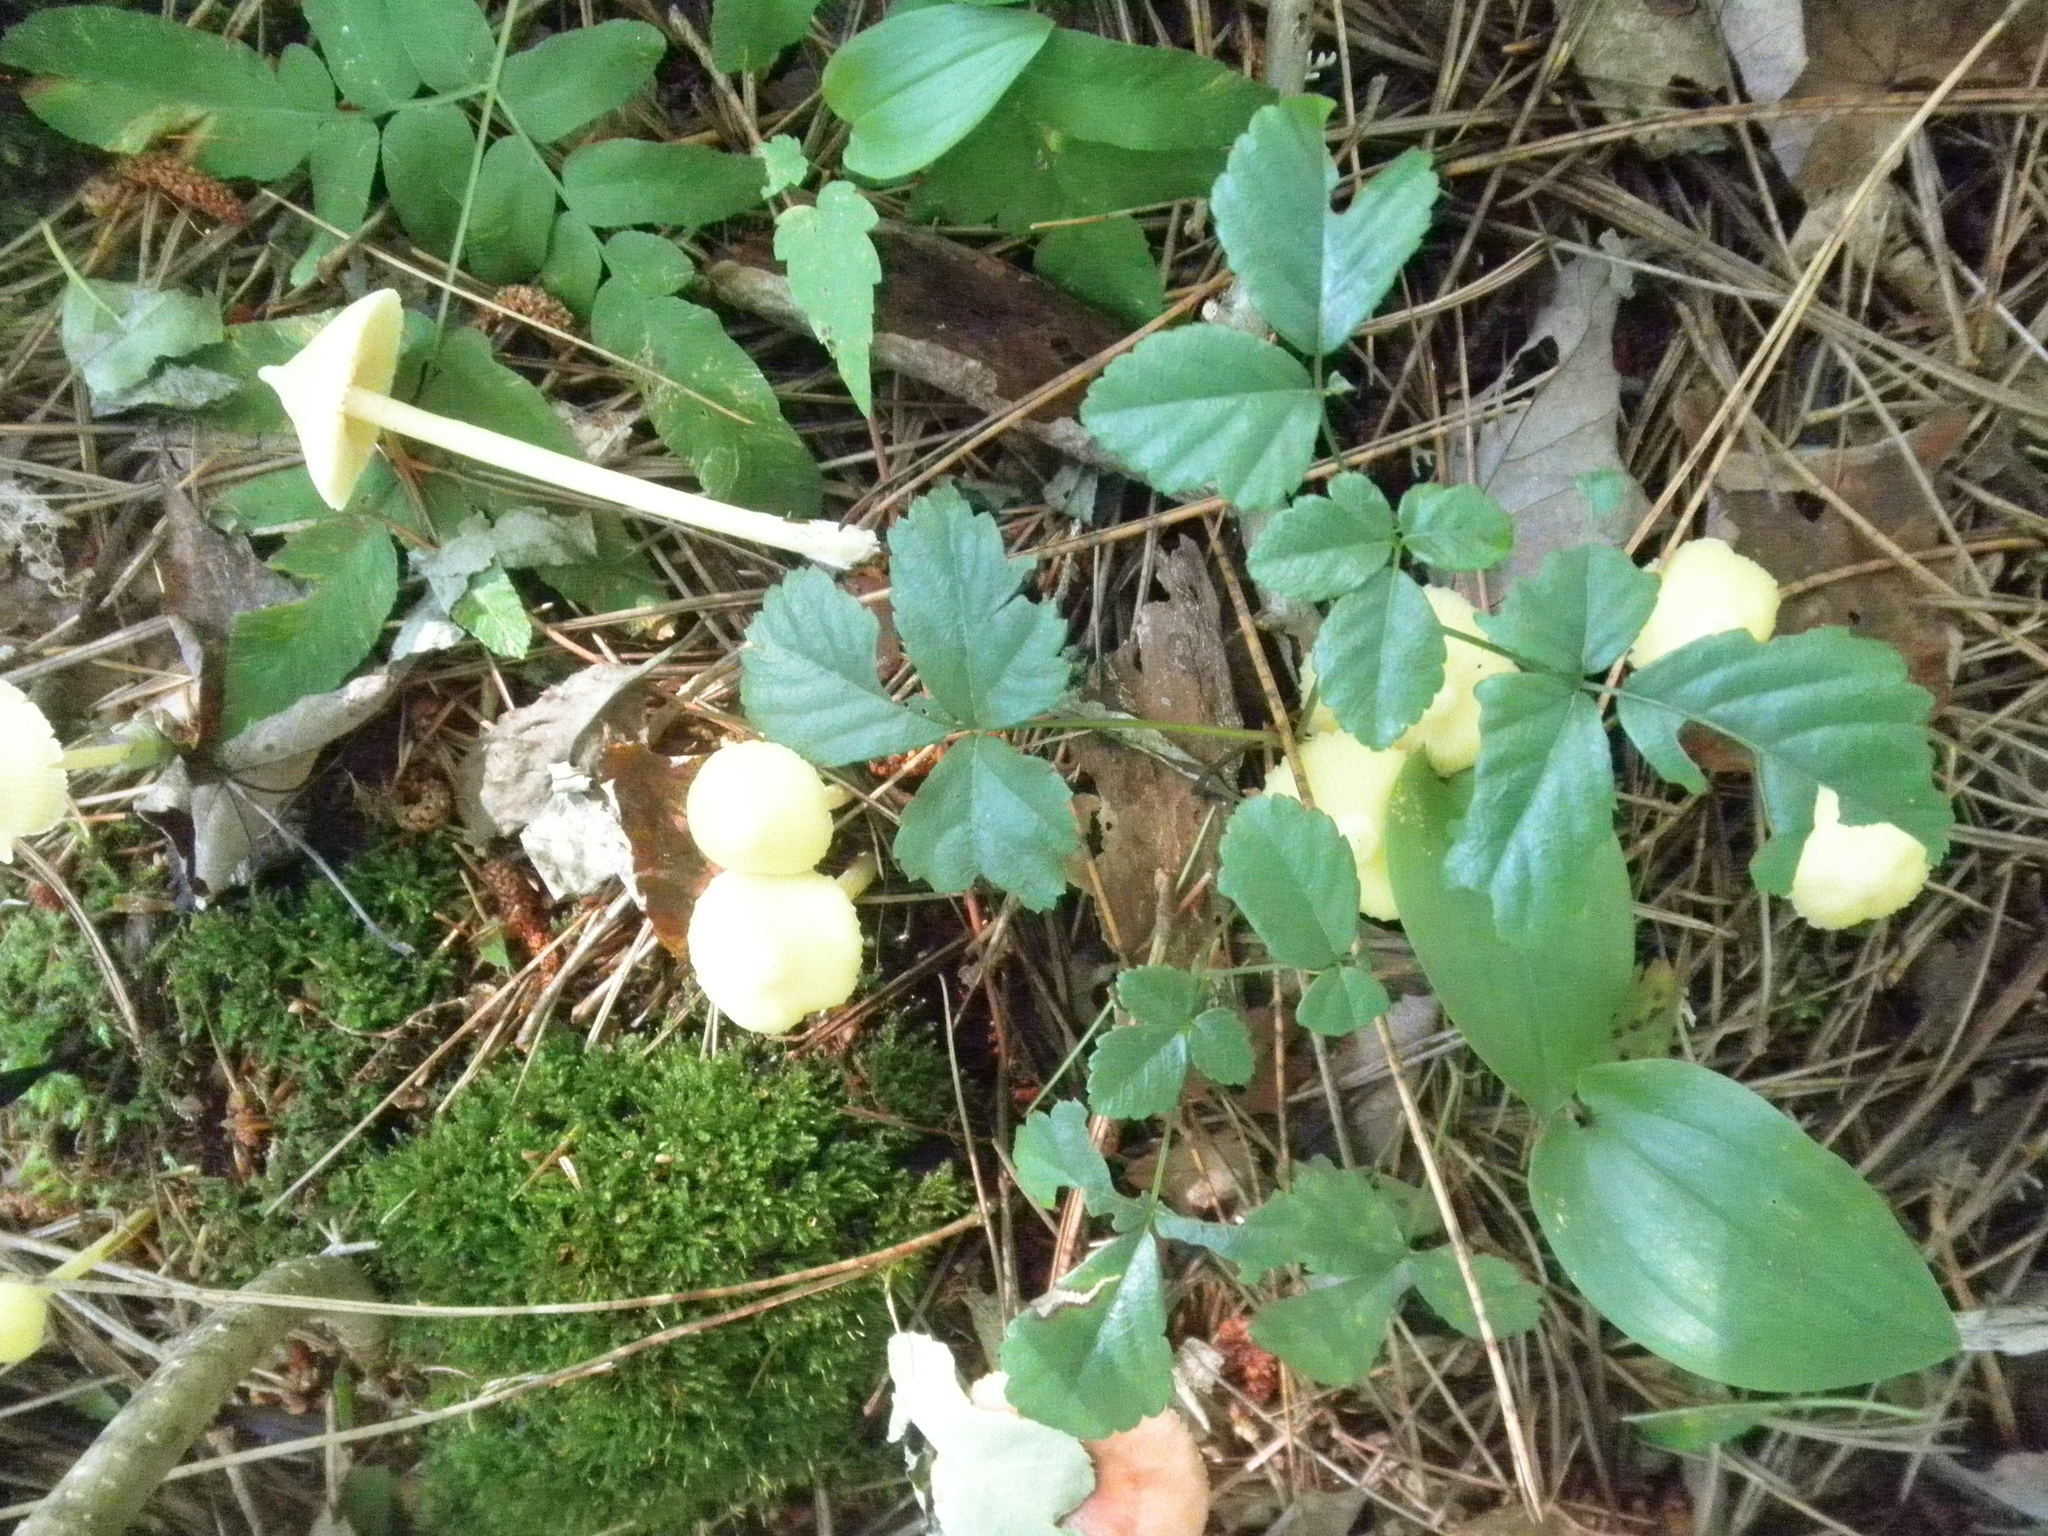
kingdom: Fungi
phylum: Basidiomycota
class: Agaricomycetes
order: Agaricales
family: Entolomataceae
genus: Entoloma
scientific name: Entoloma murrayi
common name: Yellow unicorn entoloma
